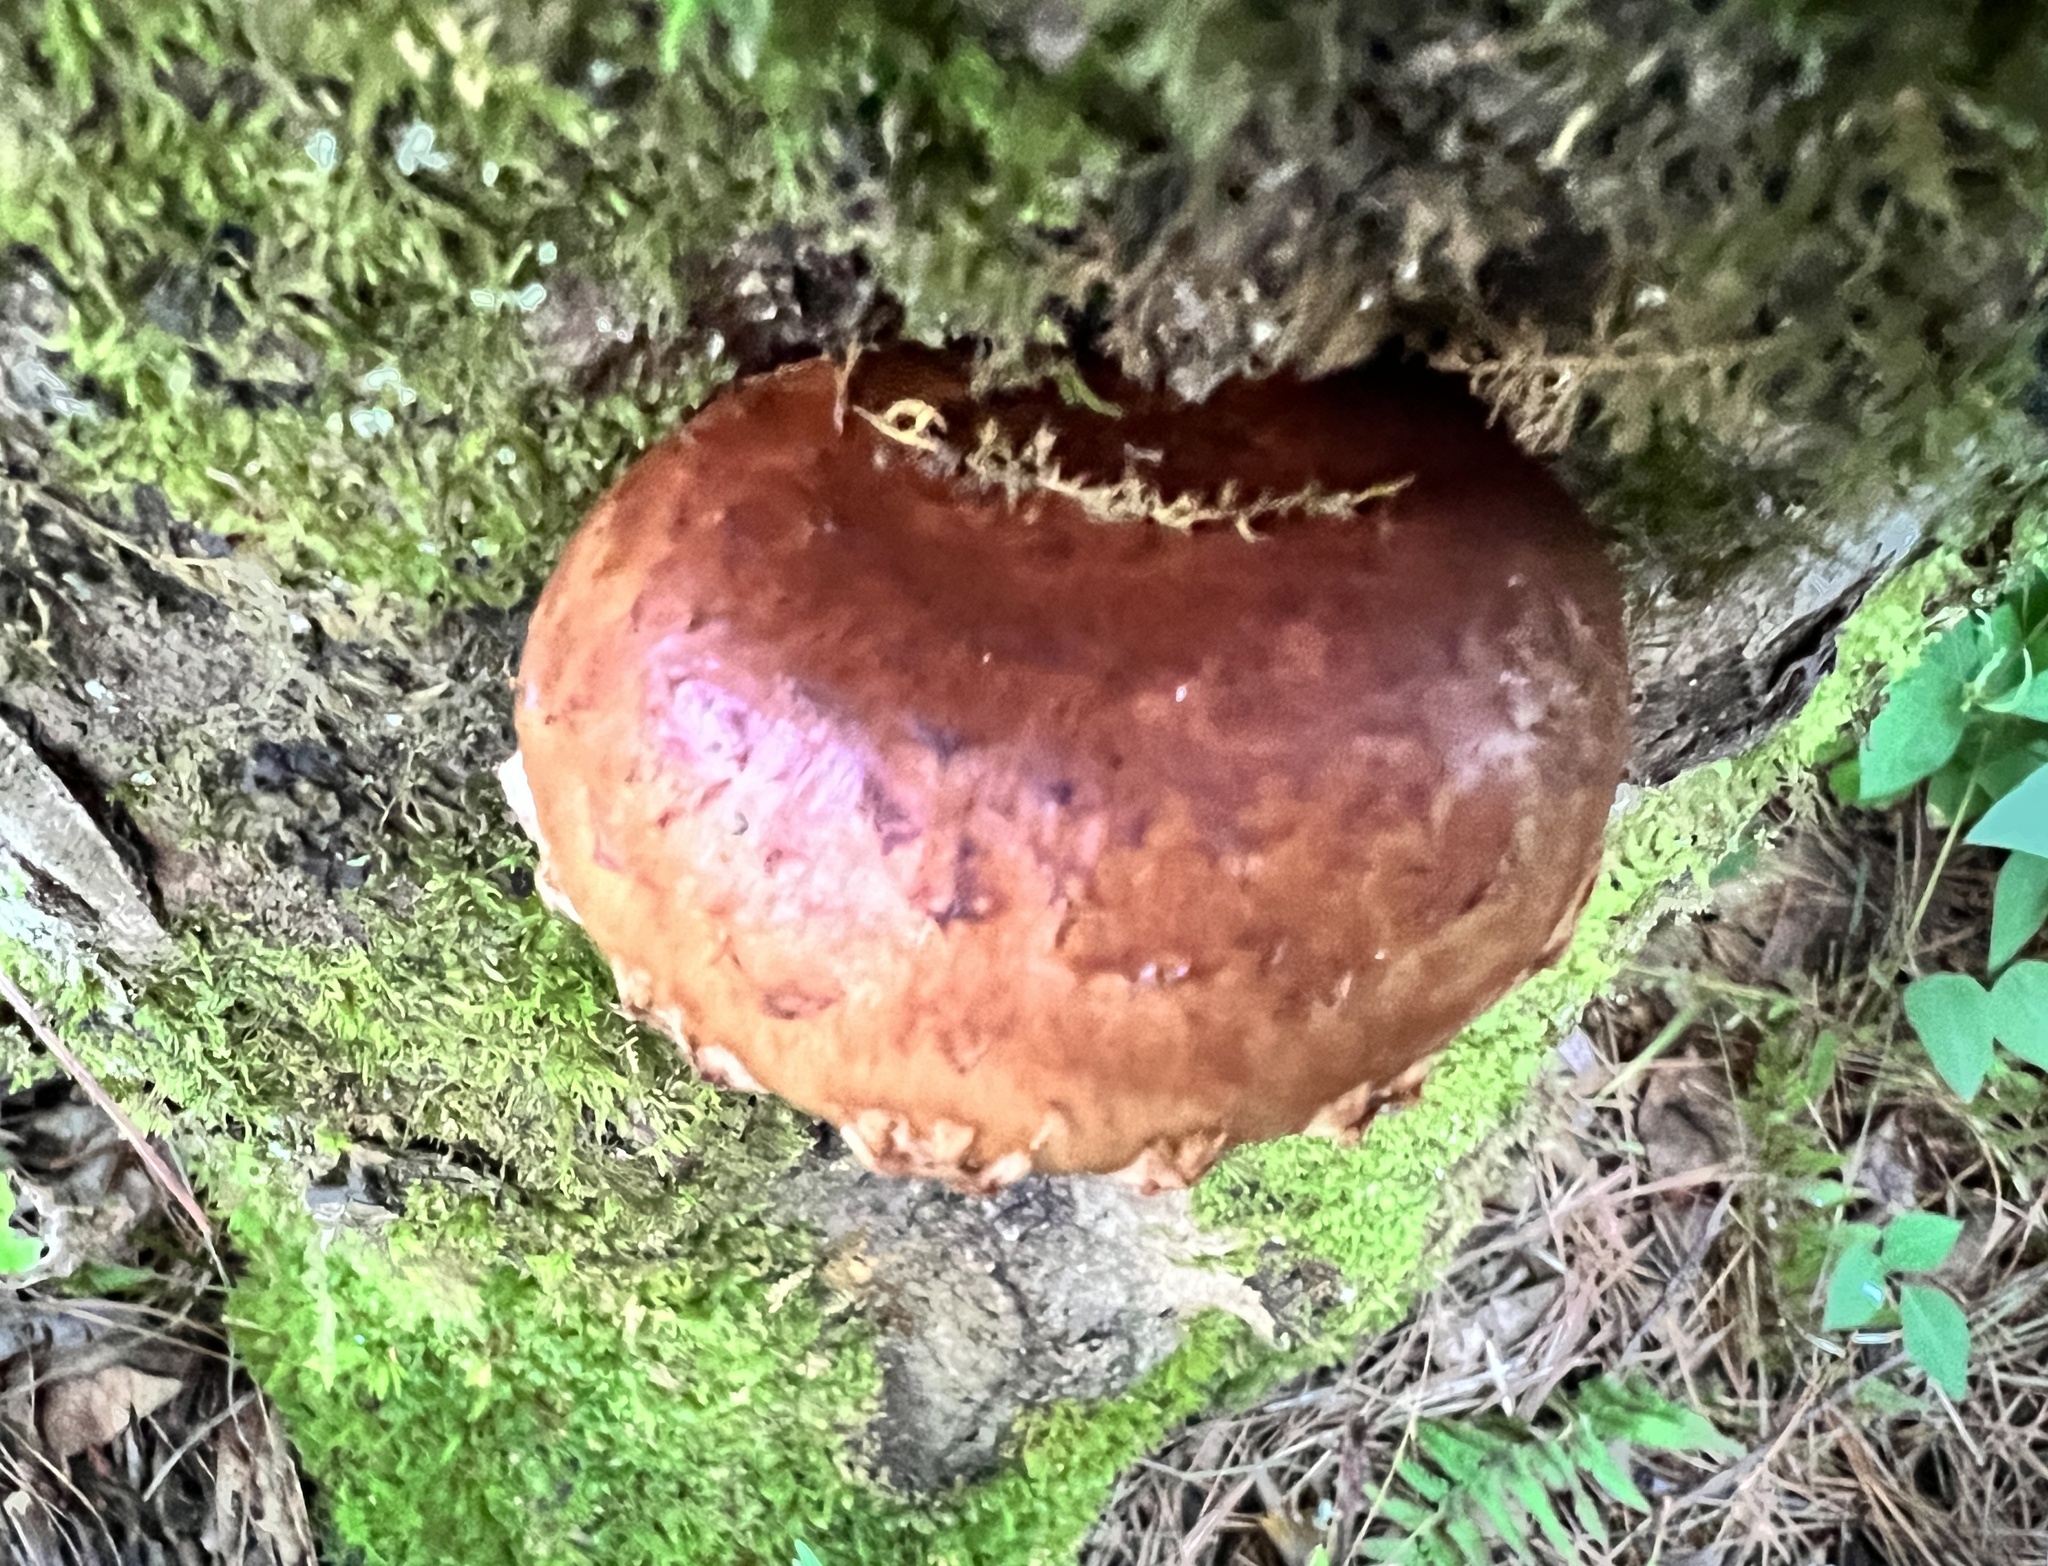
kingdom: Fungi
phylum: Basidiomycota
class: Agaricomycetes
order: Agaricales
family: Tubariaceae
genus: Hemistropharia
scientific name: Hemistropharia albocrenulata
